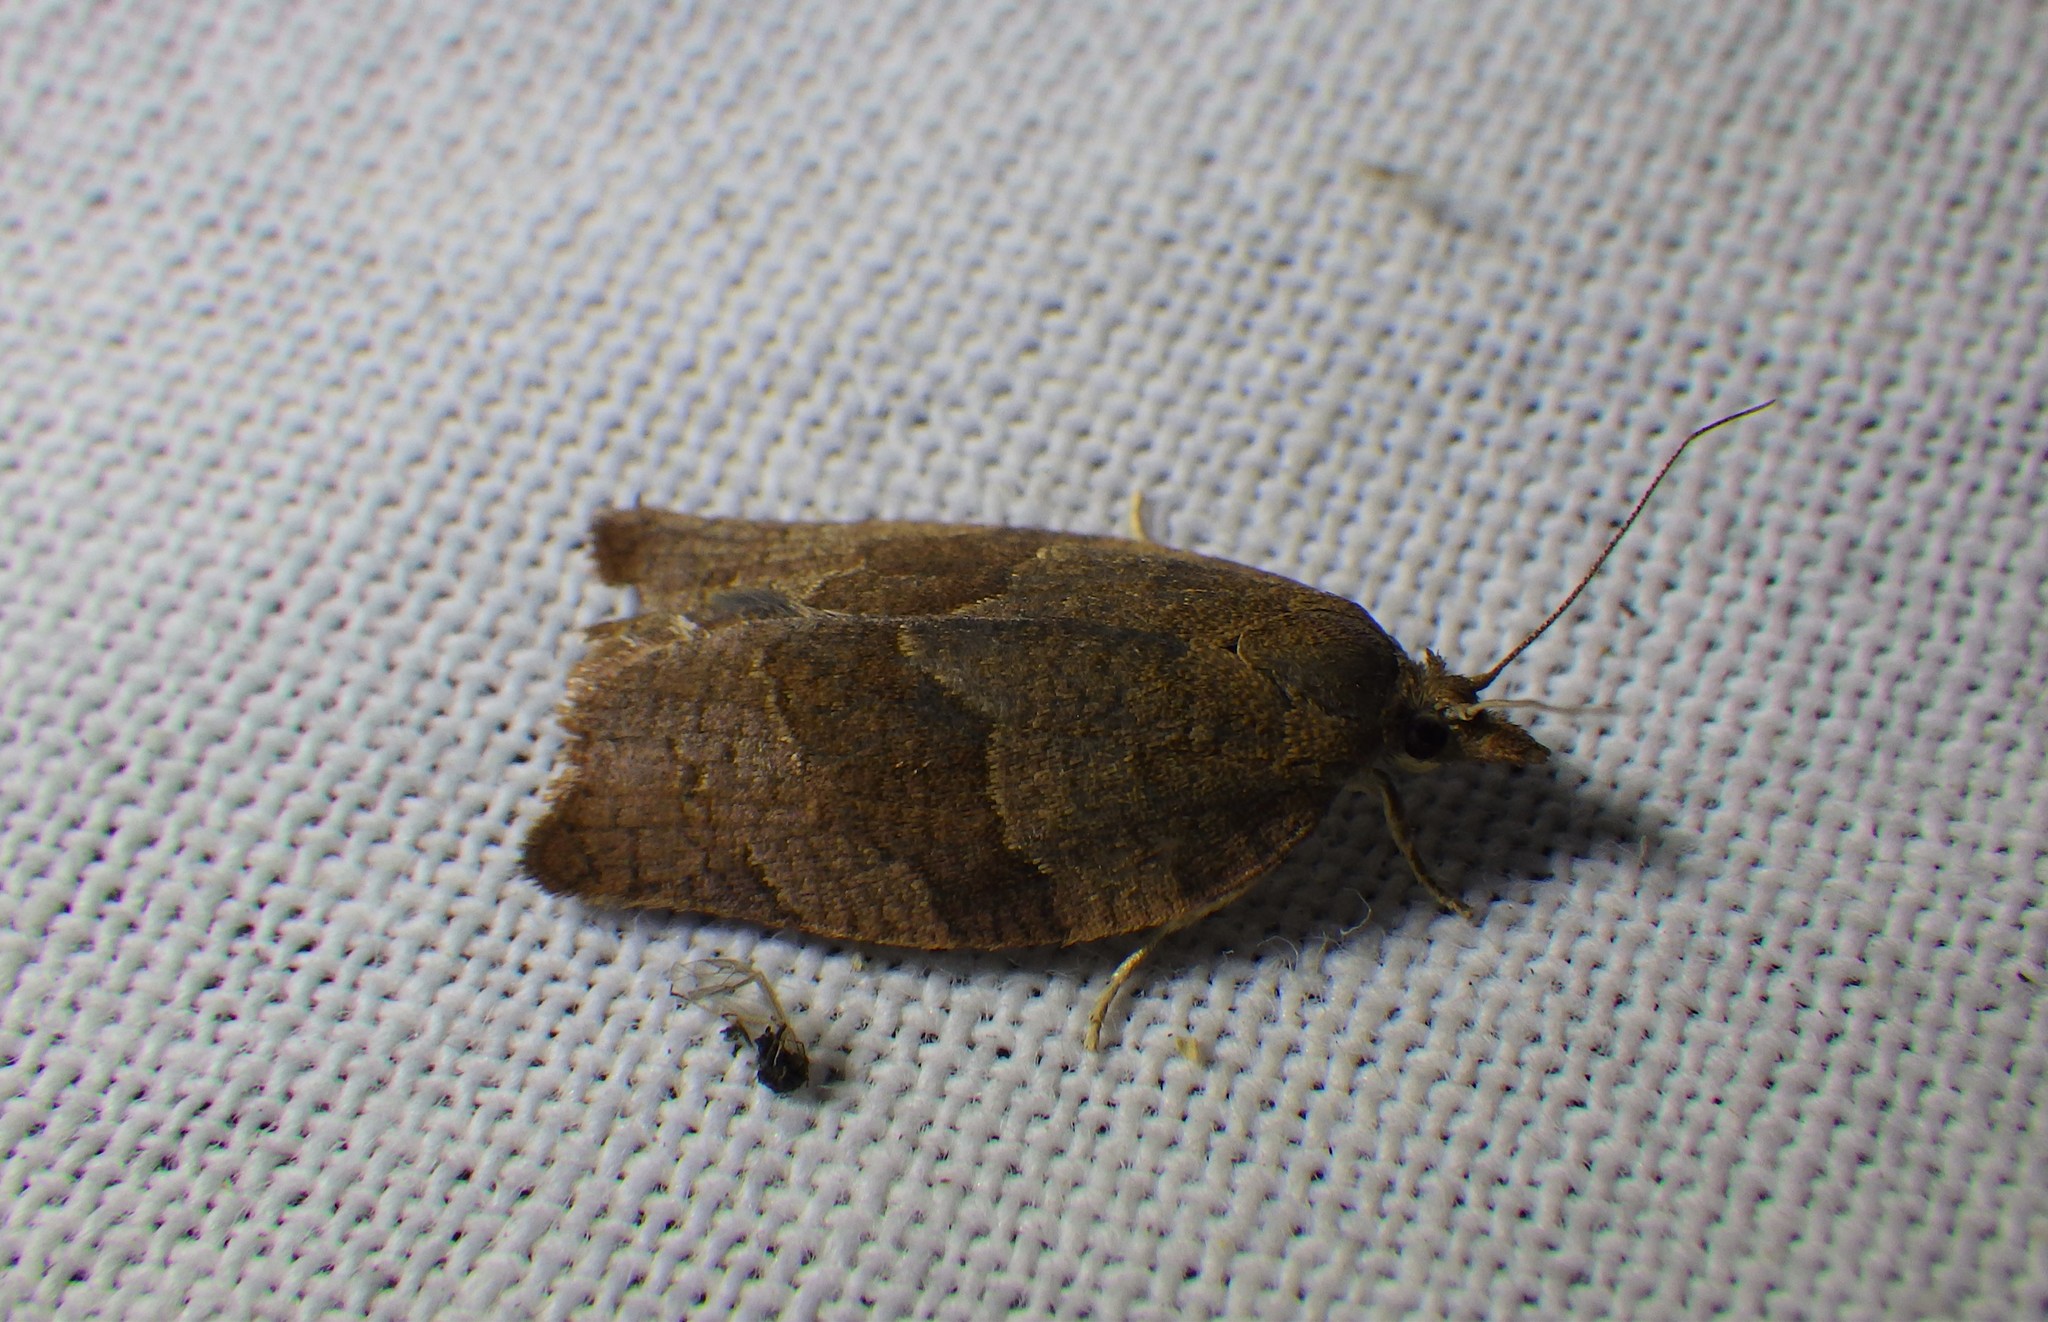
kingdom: Animalia
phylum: Arthropoda
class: Insecta
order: Lepidoptera
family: Tortricidae
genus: Pandemis
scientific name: Pandemis heparana
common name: Dark fruit-tree tortrix
